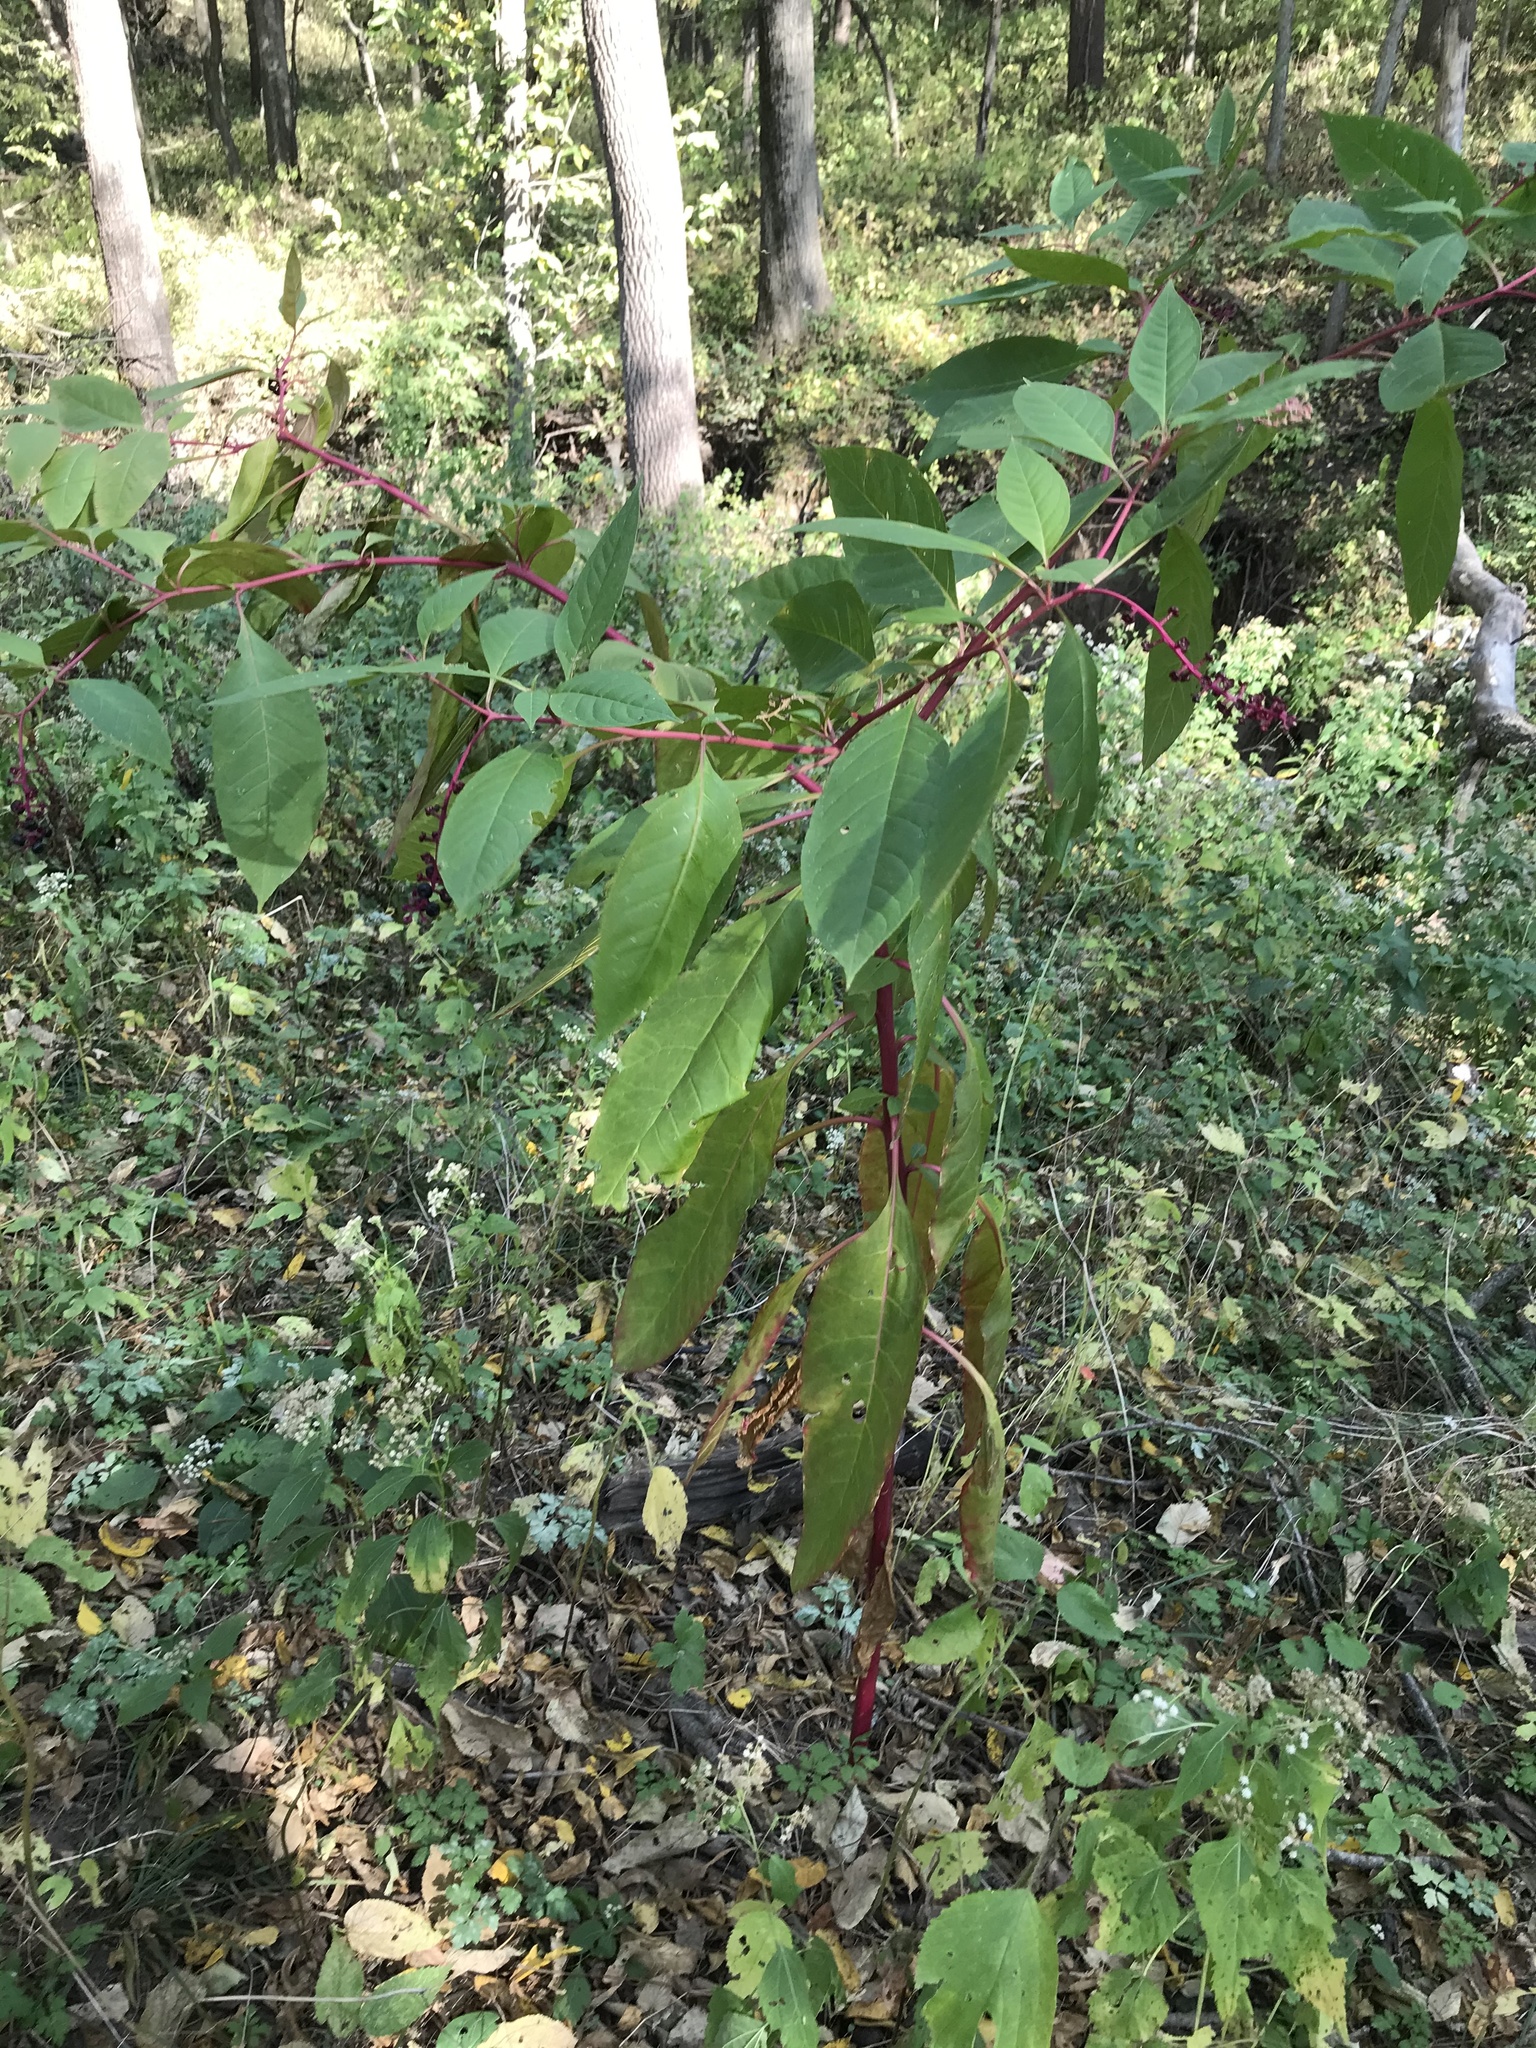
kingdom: Plantae
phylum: Tracheophyta
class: Magnoliopsida
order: Caryophyllales
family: Phytolaccaceae
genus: Phytolacca
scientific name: Phytolacca americana
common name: American pokeweed
